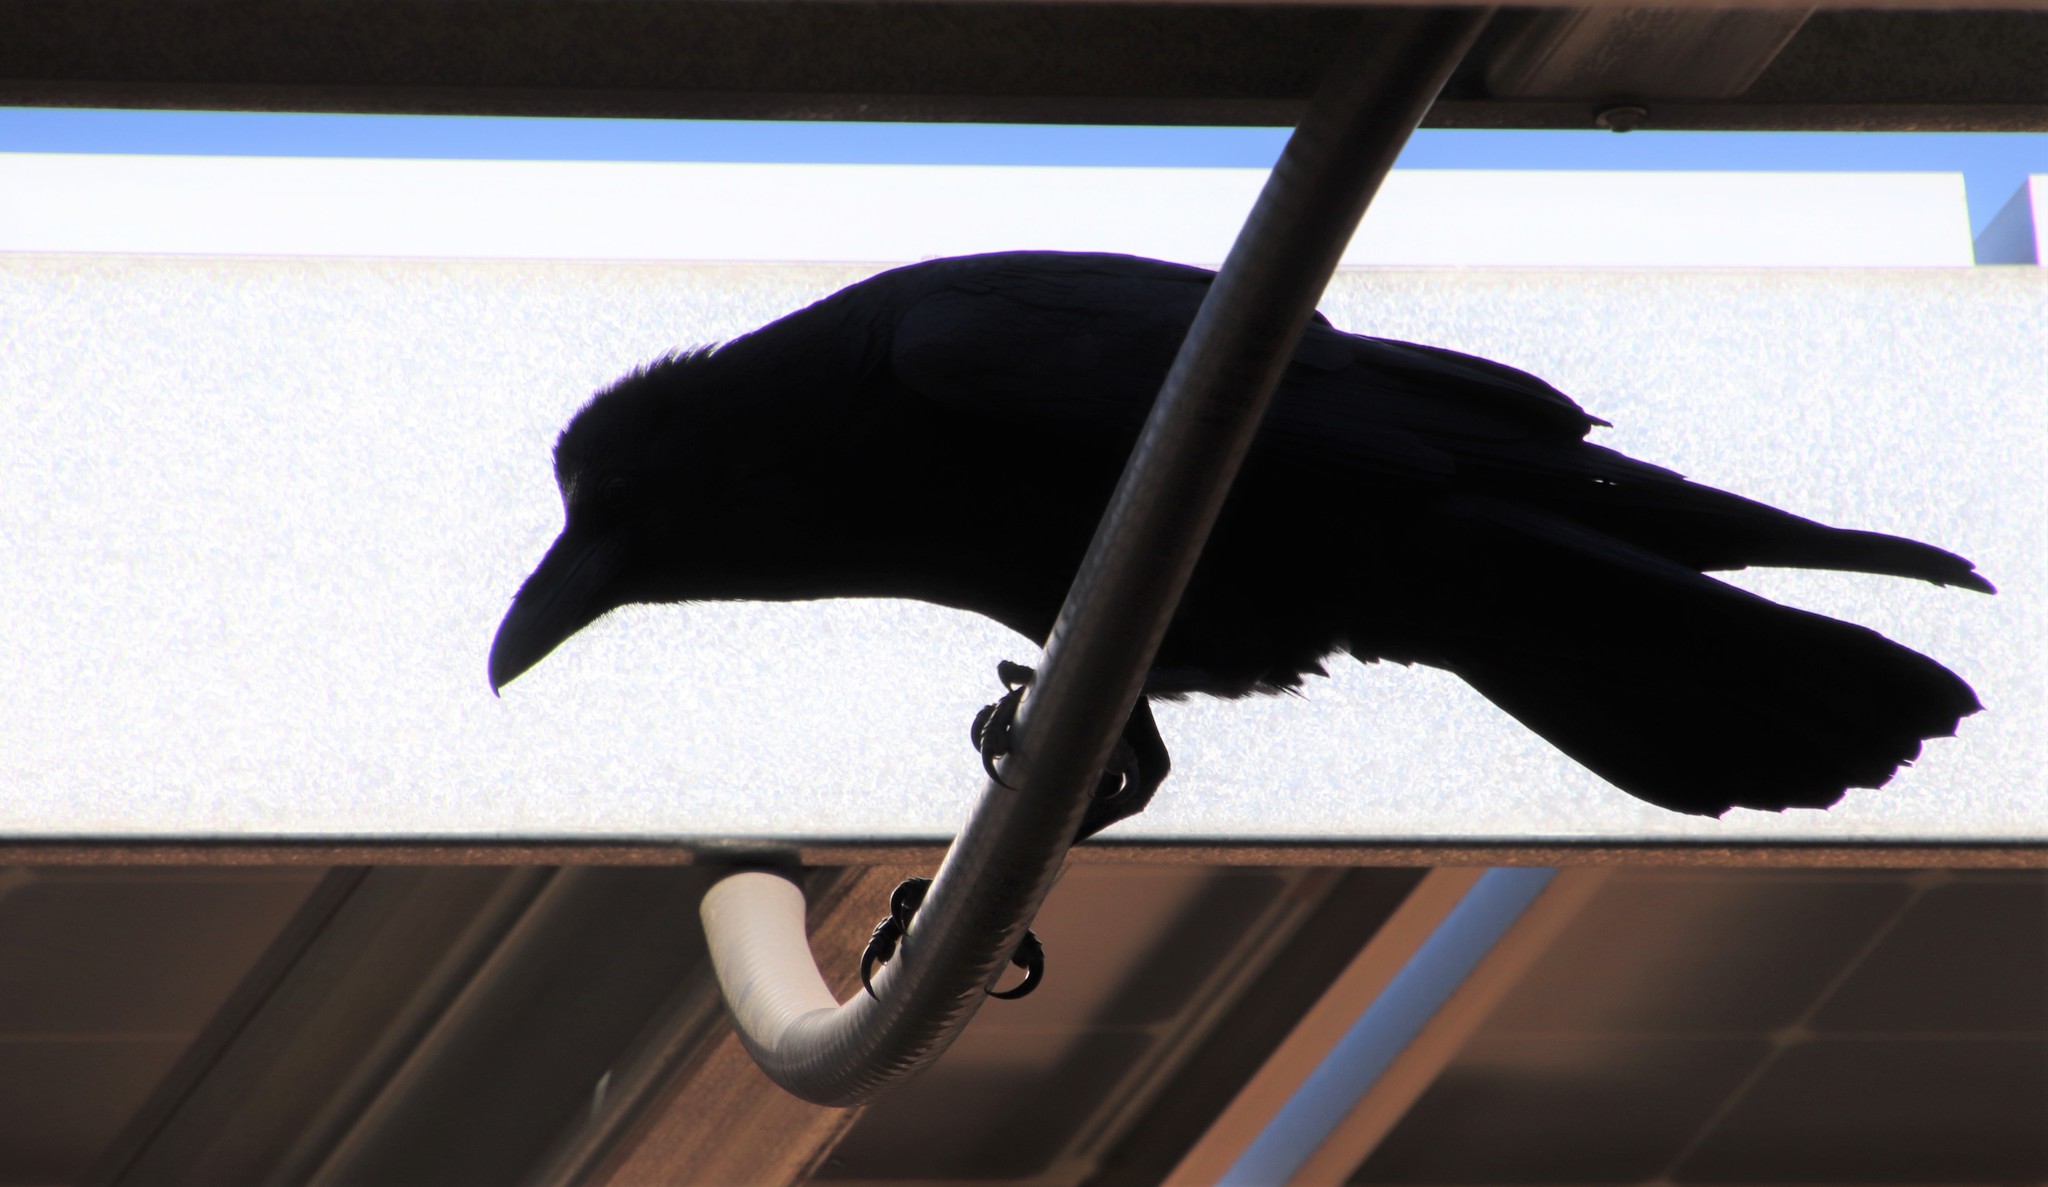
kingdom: Animalia
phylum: Chordata
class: Aves
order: Passeriformes
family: Corvidae
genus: Corvus
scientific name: Corvus corax
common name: Common raven
